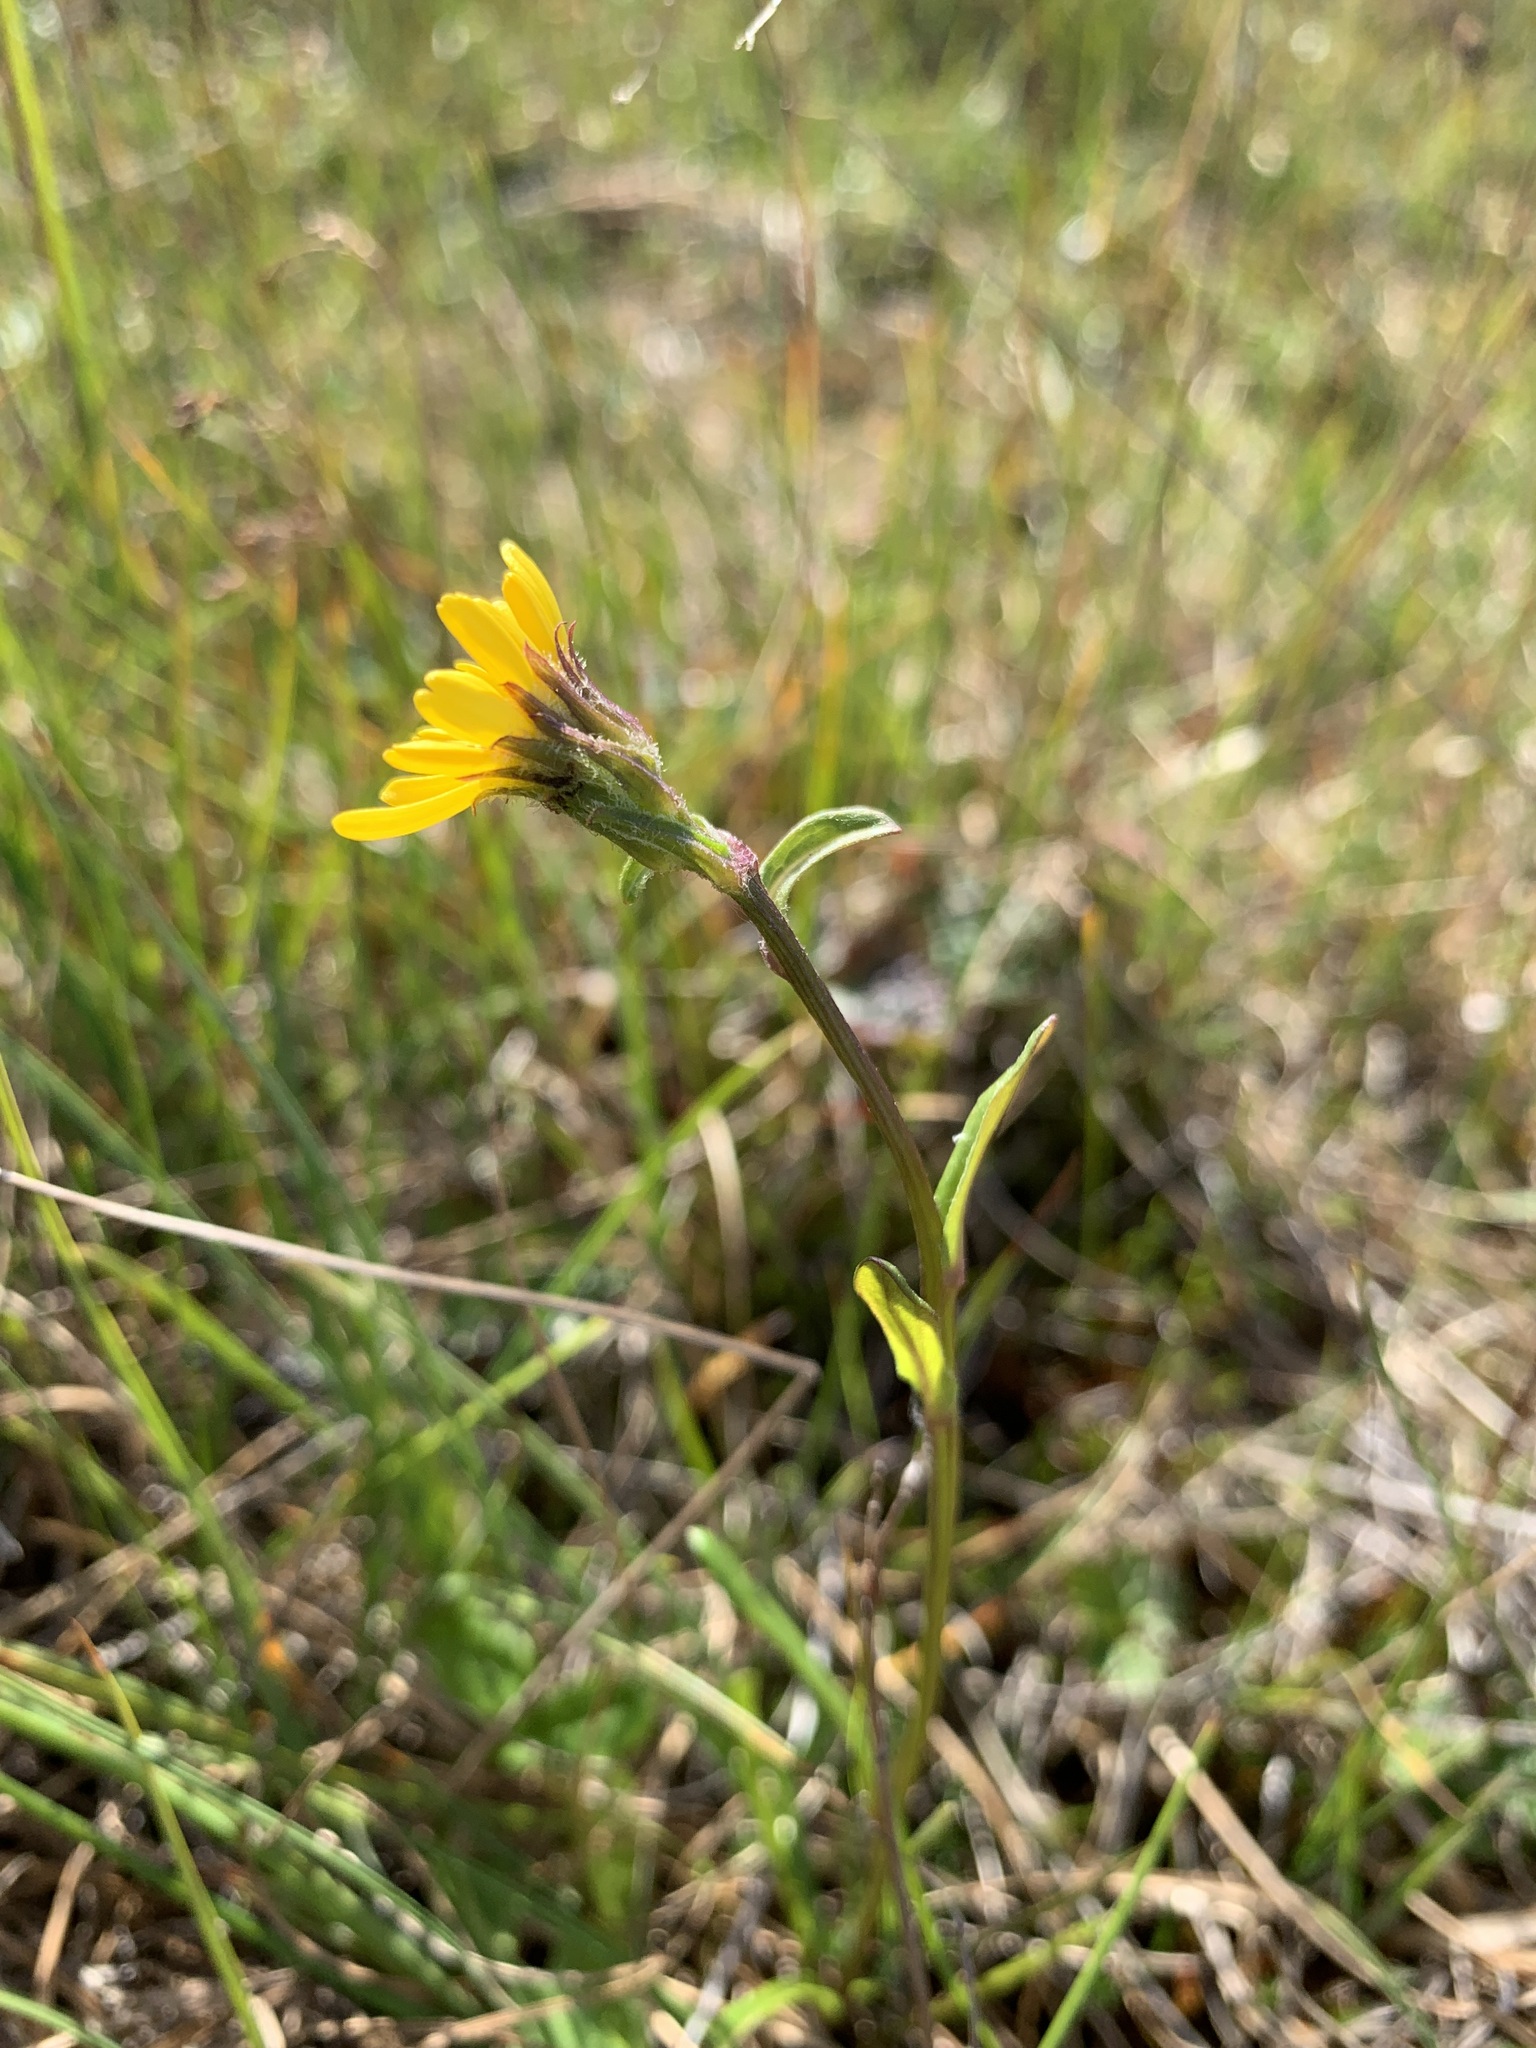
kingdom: Plantae
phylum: Tracheophyta
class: Magnoliopsida
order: Asterales
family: Asteraceae
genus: Tephroseris
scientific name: Tephroseris integrifolia
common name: Field fleawort
